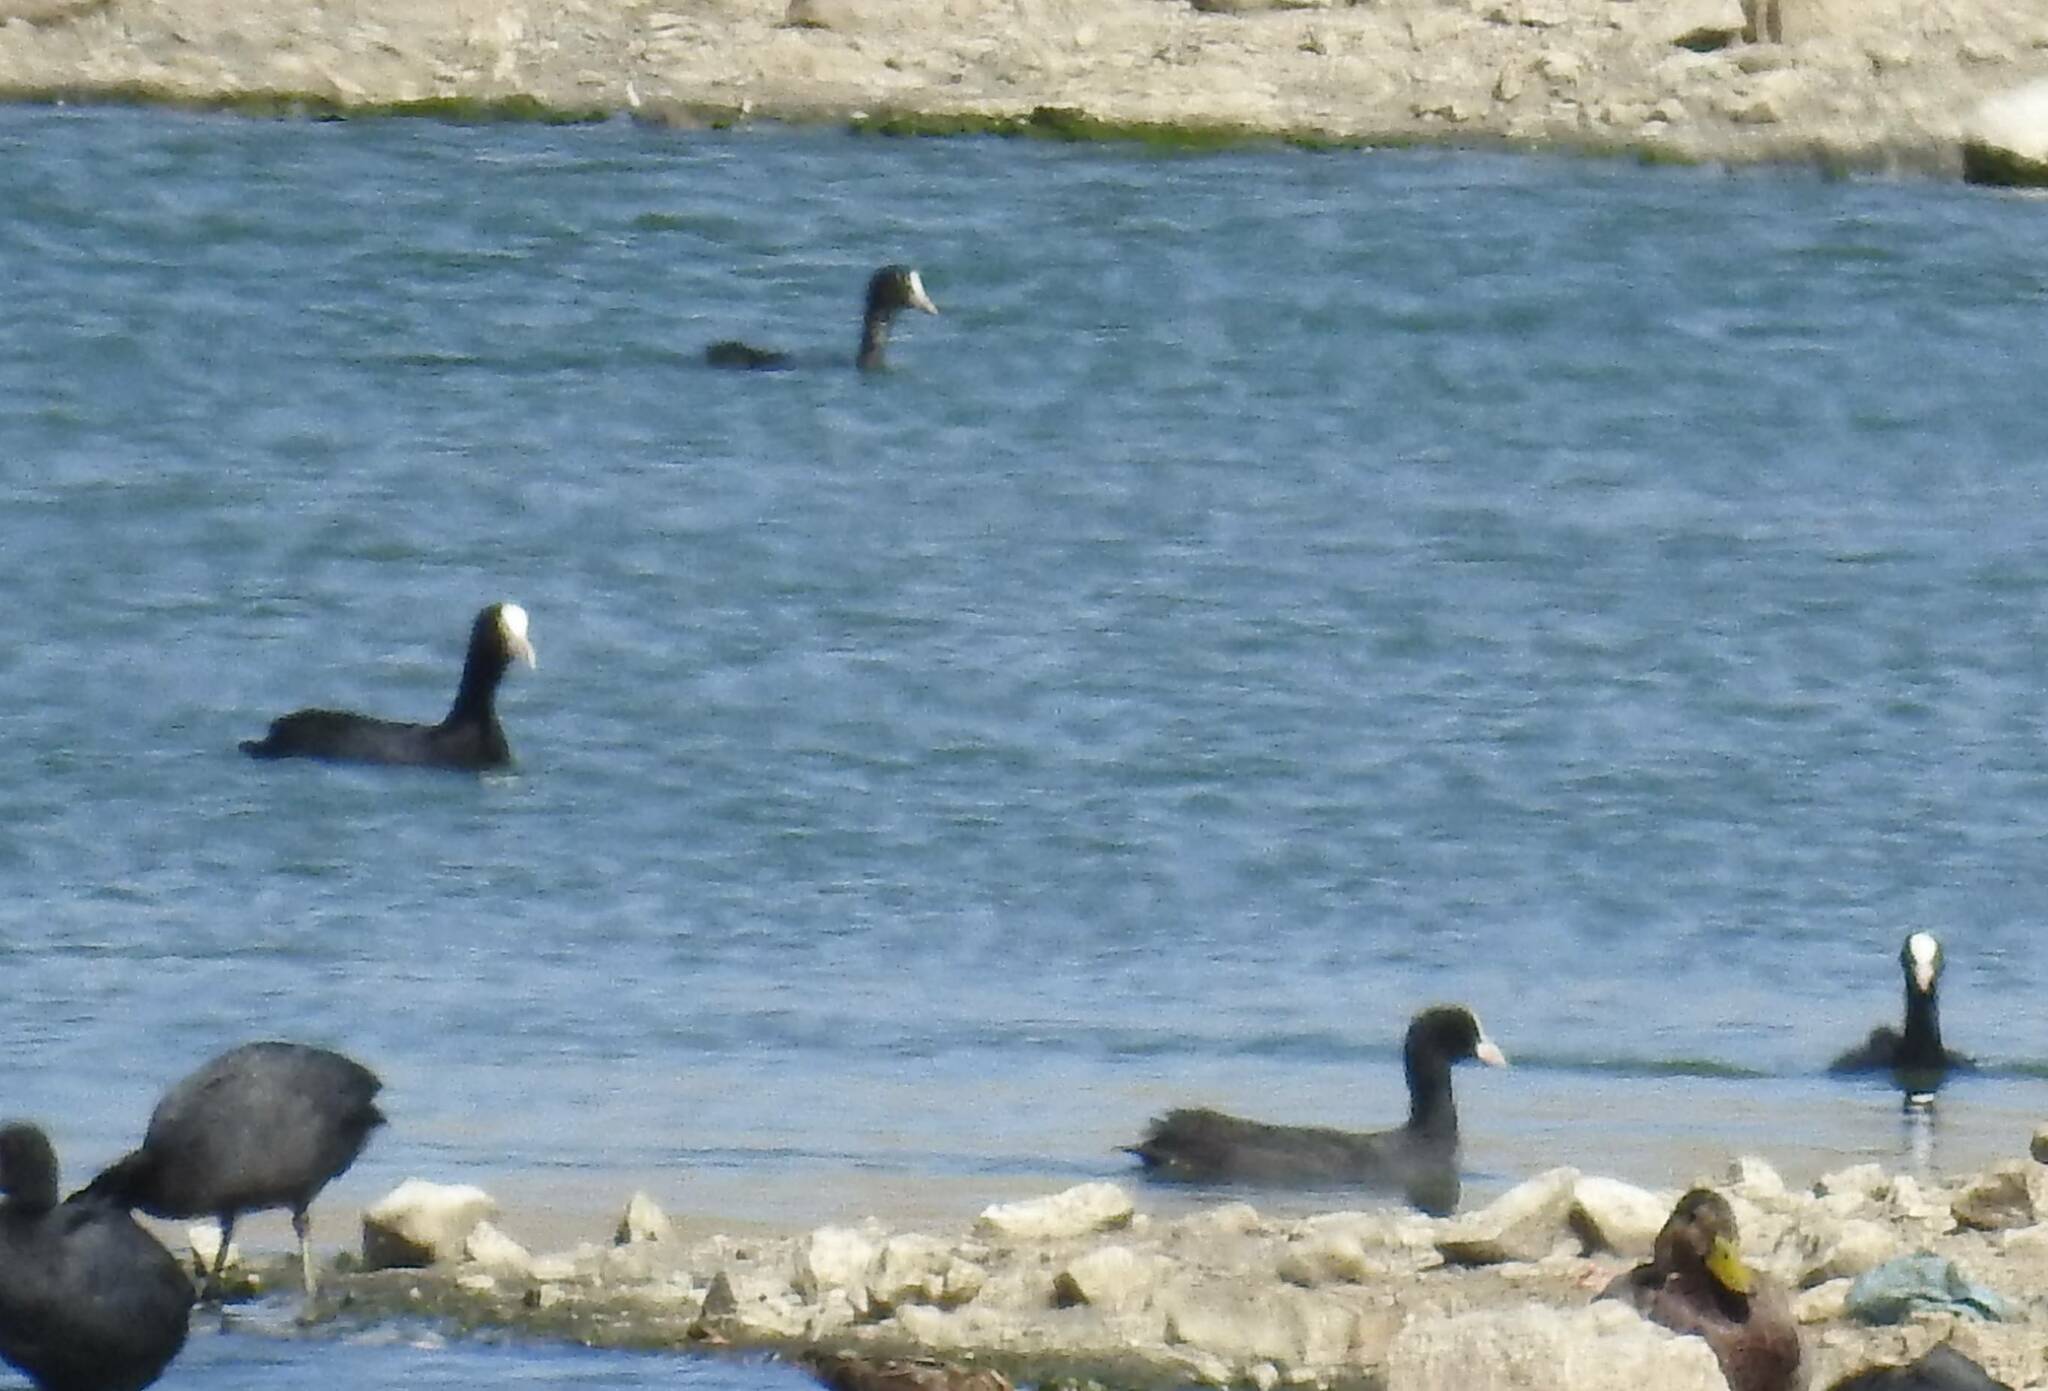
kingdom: Animalia
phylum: Chordata
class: Aves
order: Gruiformes
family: Rallidae
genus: Fulica
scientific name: Fulica atra
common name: Eurasian coot
